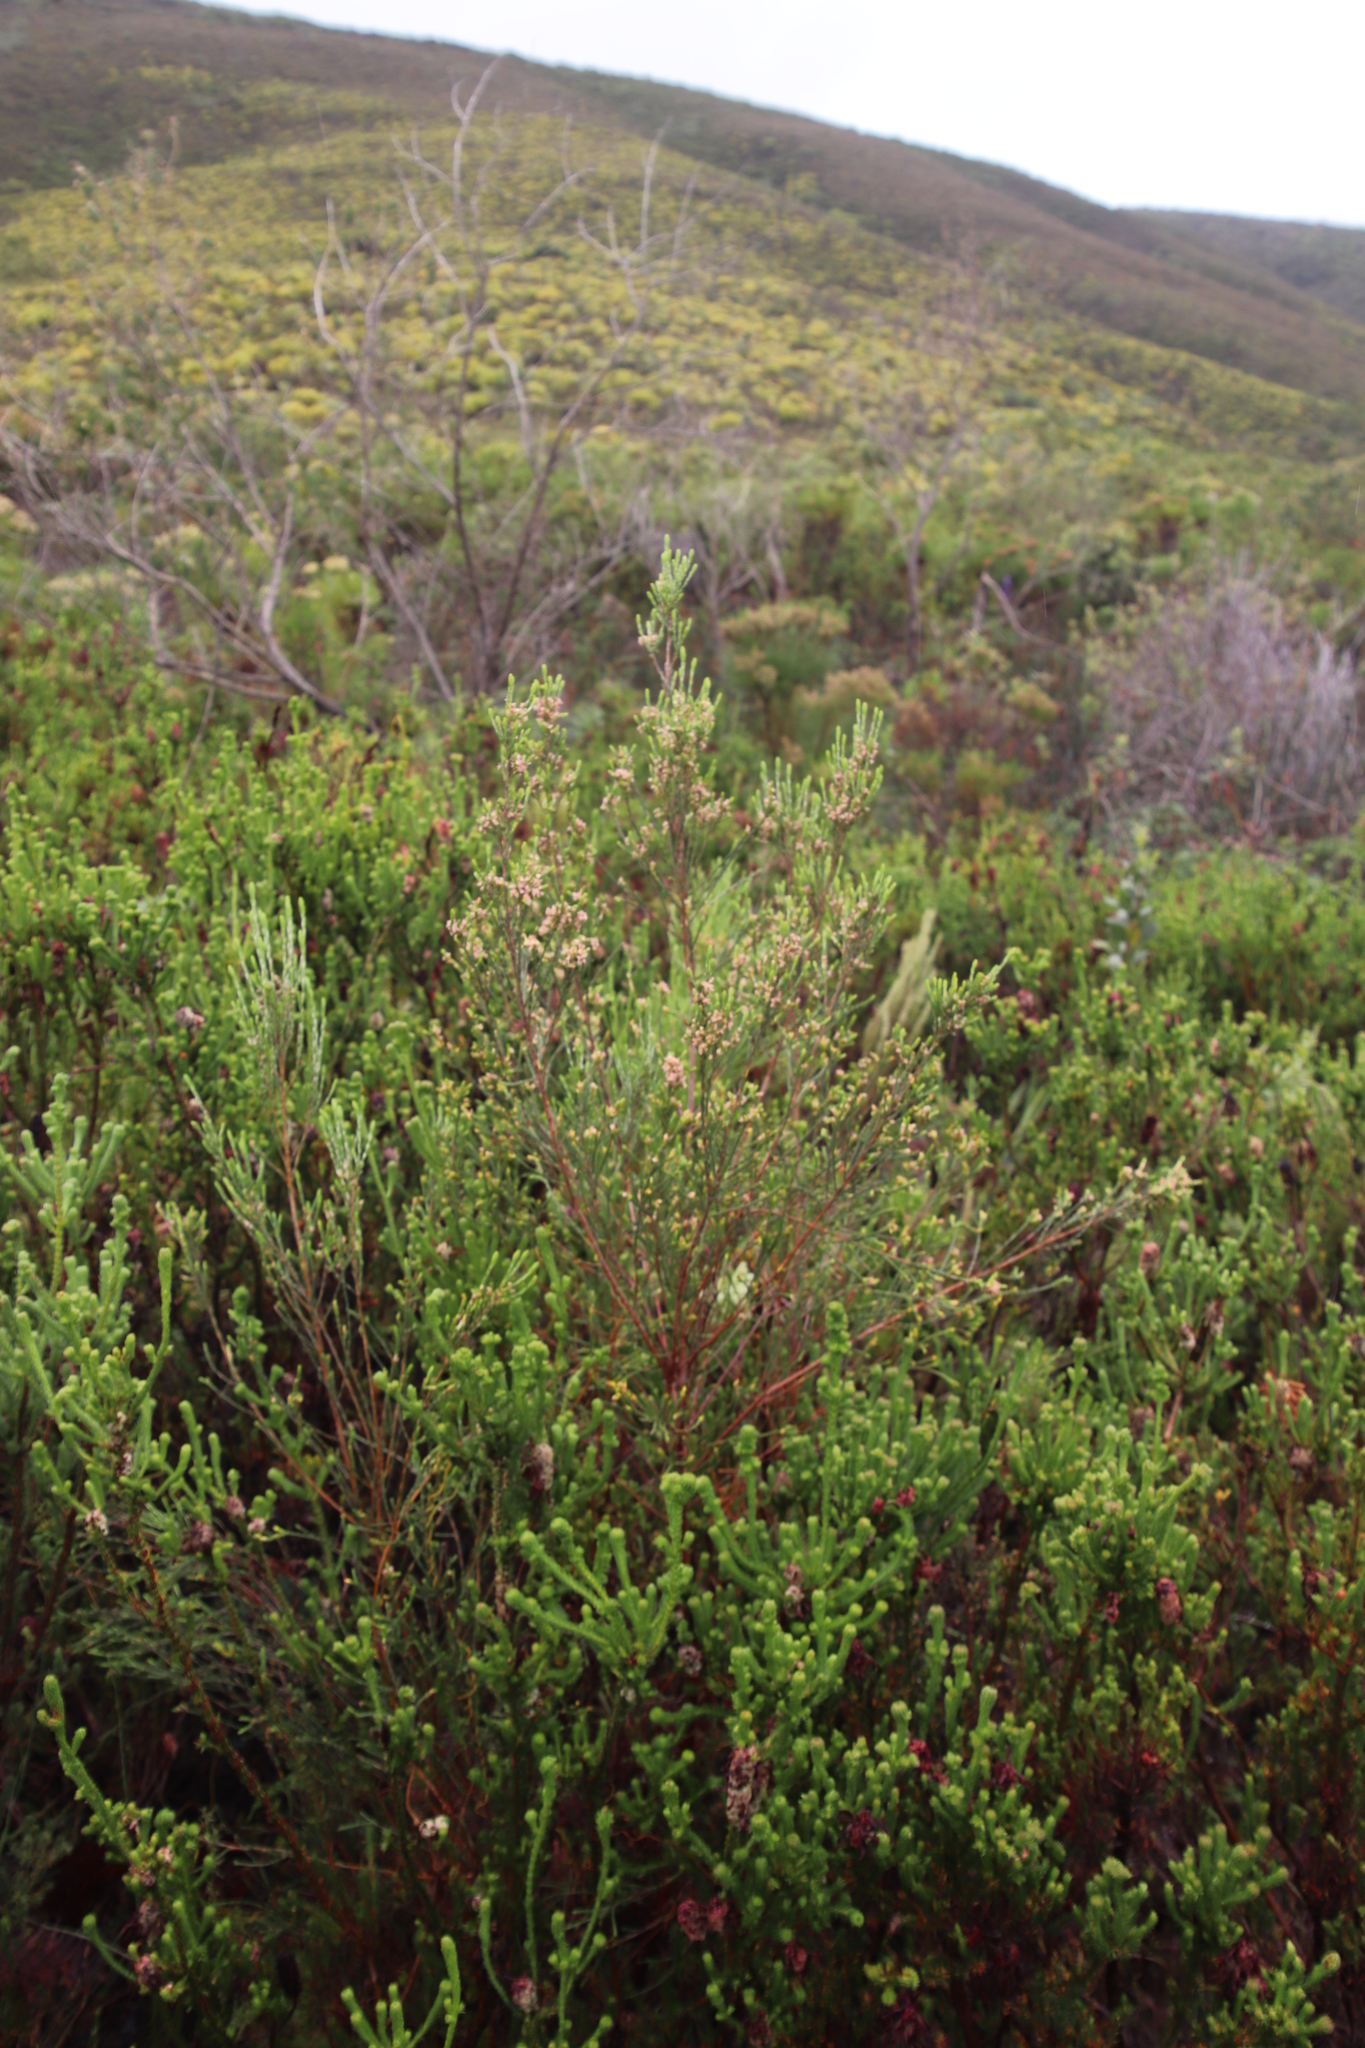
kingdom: Plantae
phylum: Tracheophyta
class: Magnoliopsida
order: Malvales
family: Thymelaeaceae
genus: Passerina
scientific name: Passerina corymbosa
